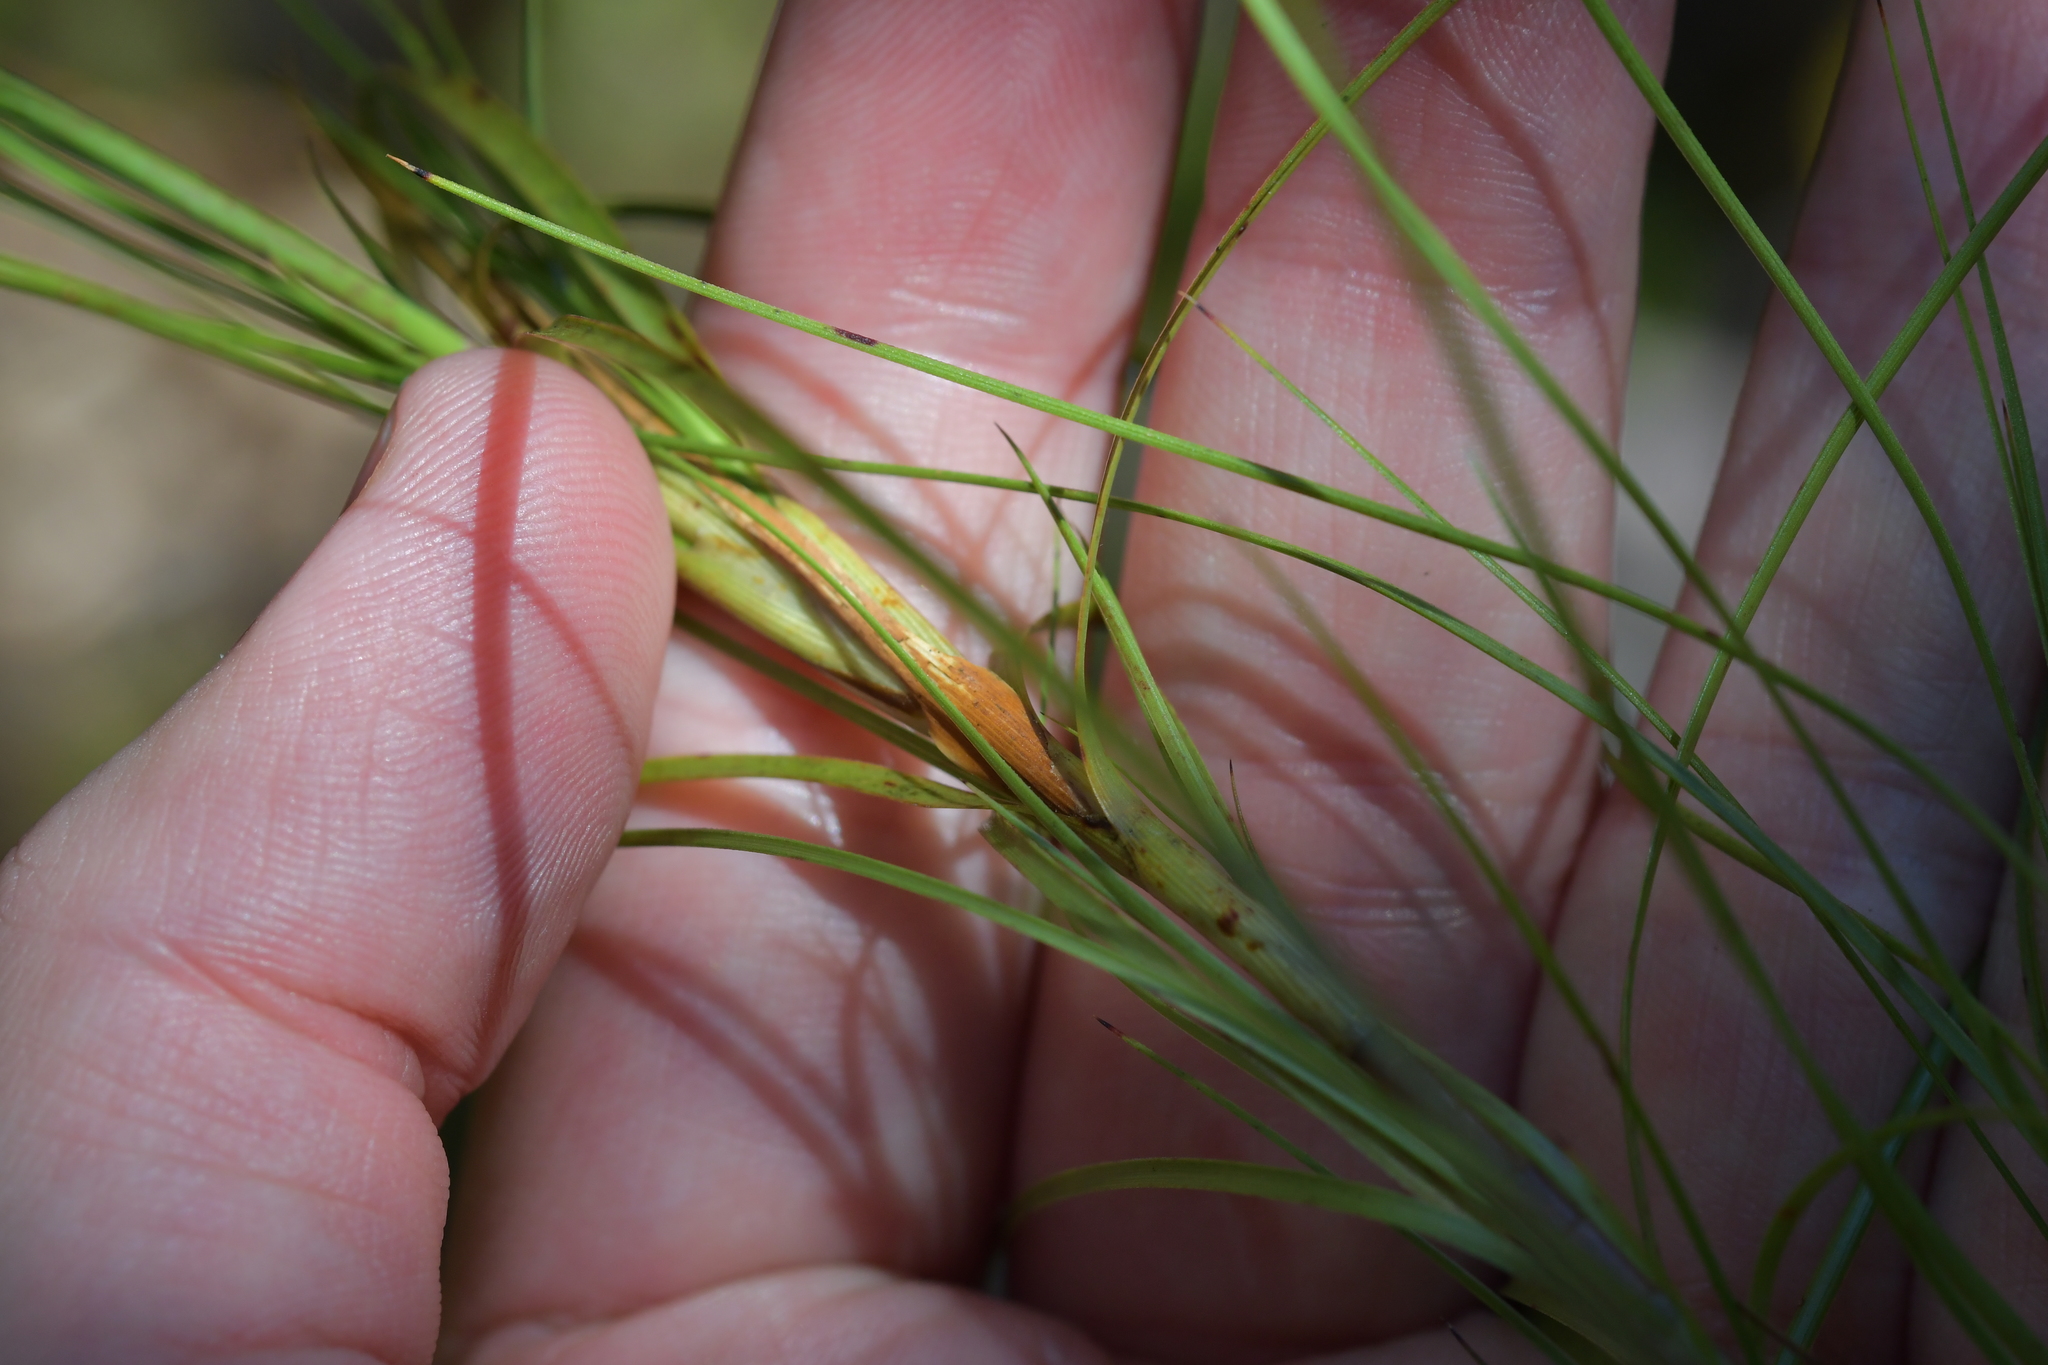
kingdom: Plantae
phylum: Tracheophyta
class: Magnoliopsida
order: Ericales
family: Ericaceae
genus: Dracophyllum
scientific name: Dracophyllum filifolium
